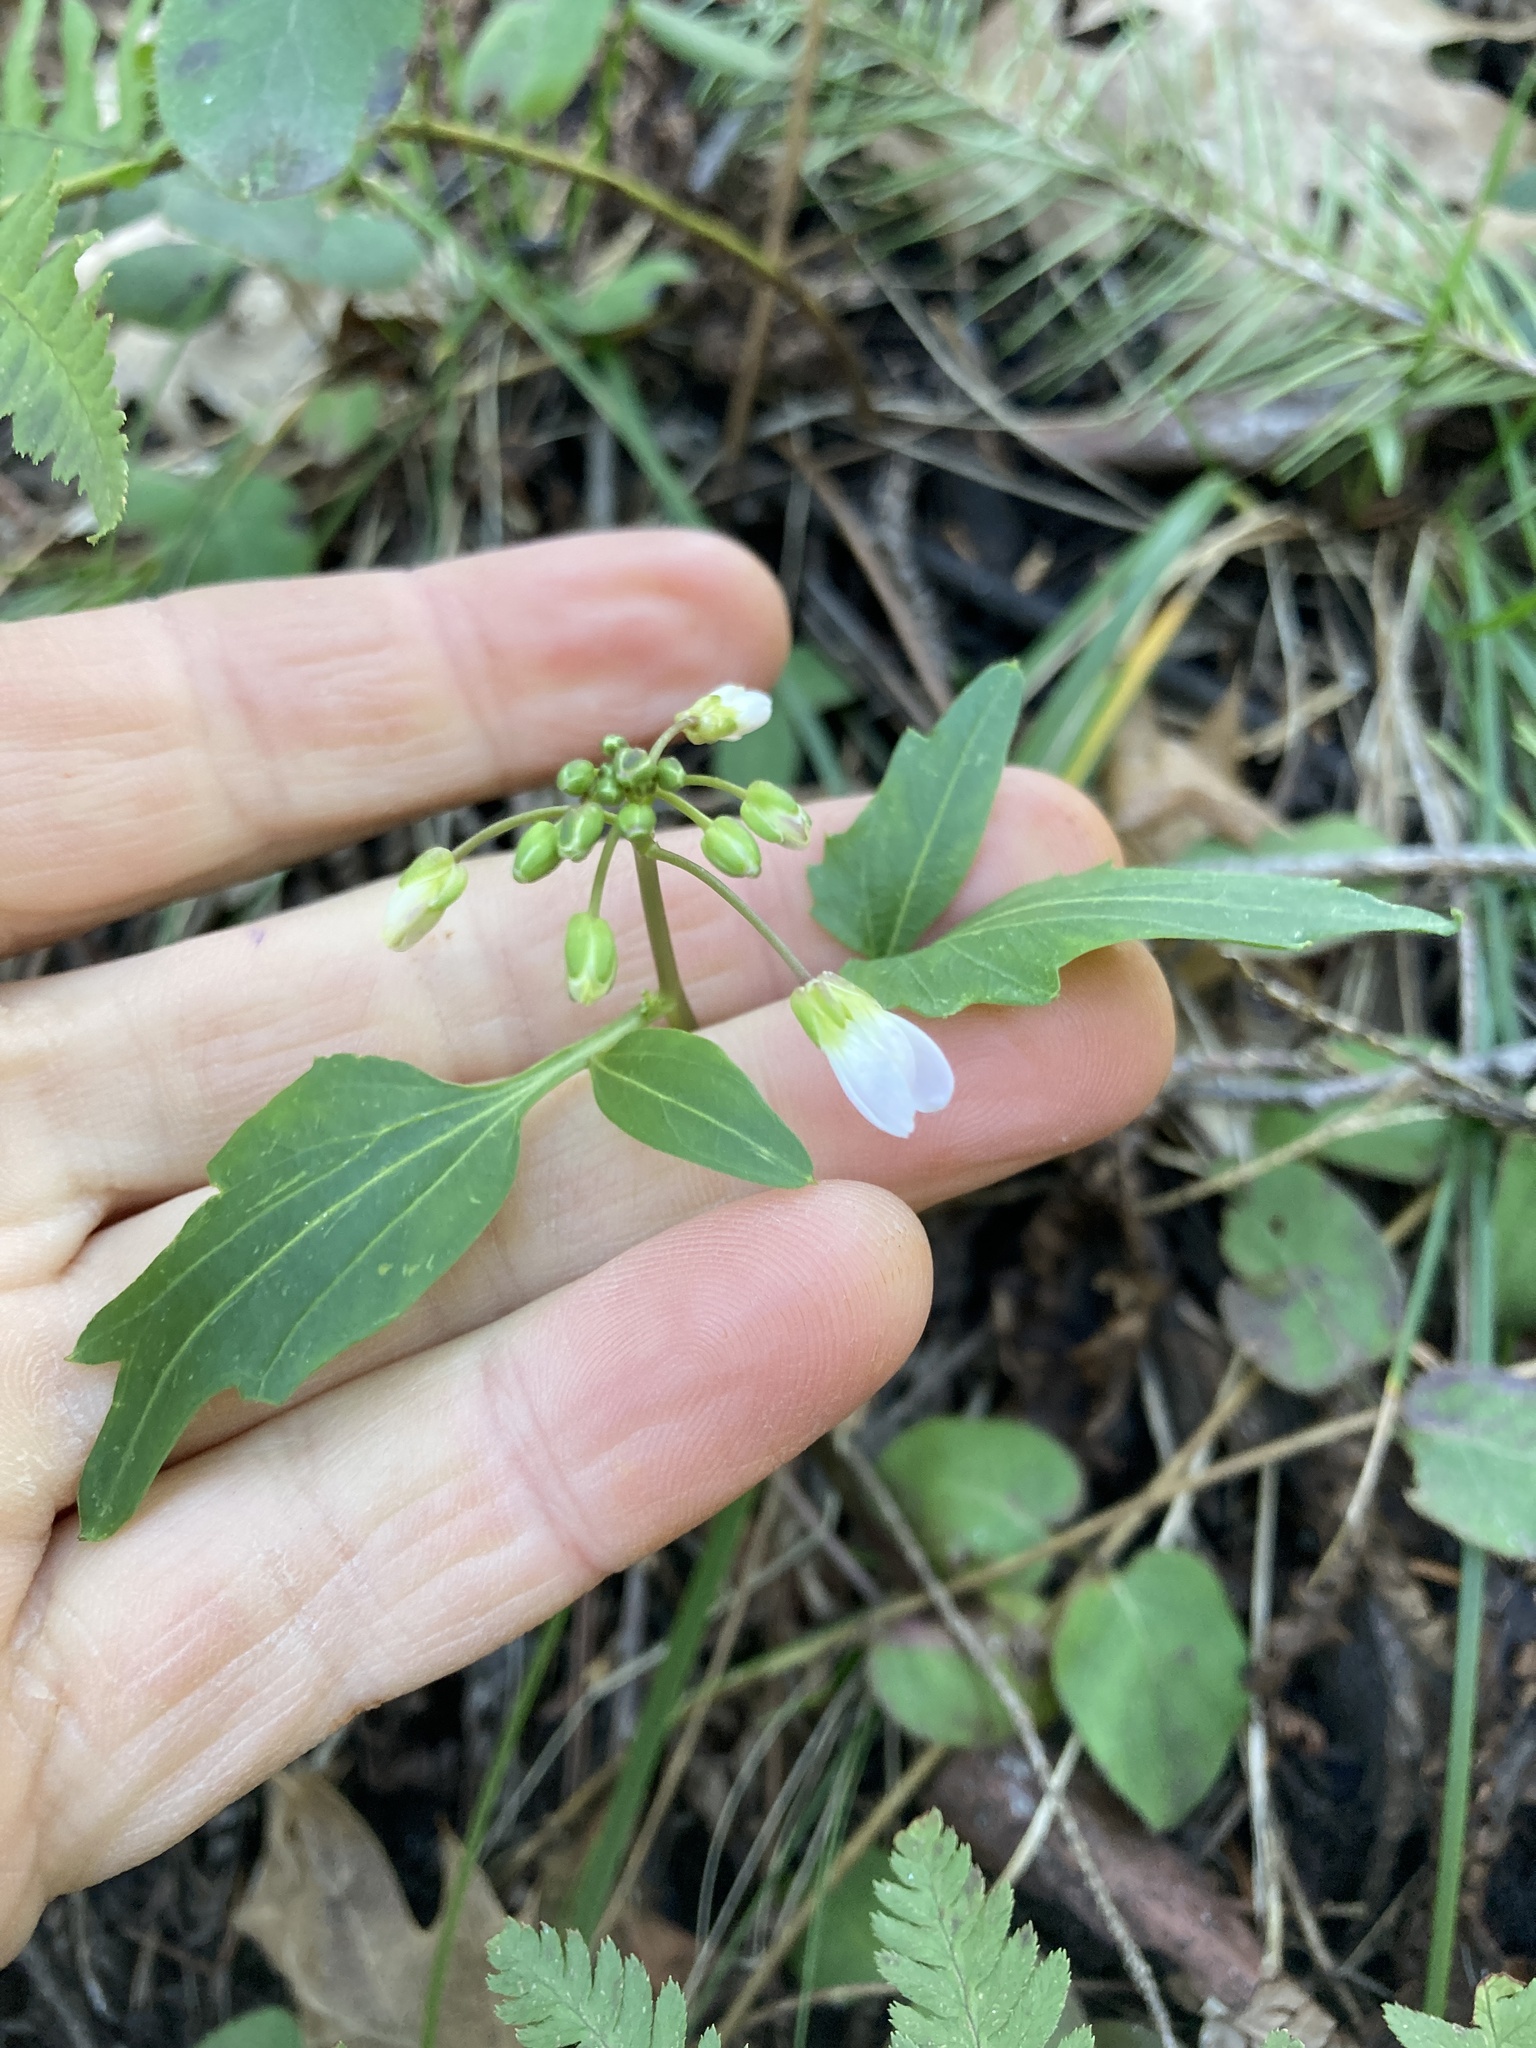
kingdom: Plantae
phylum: Tracheophyta
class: Magnoliopsida
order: Brassicales
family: Brassicaceae
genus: Cardamine
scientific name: Cardamine californica
